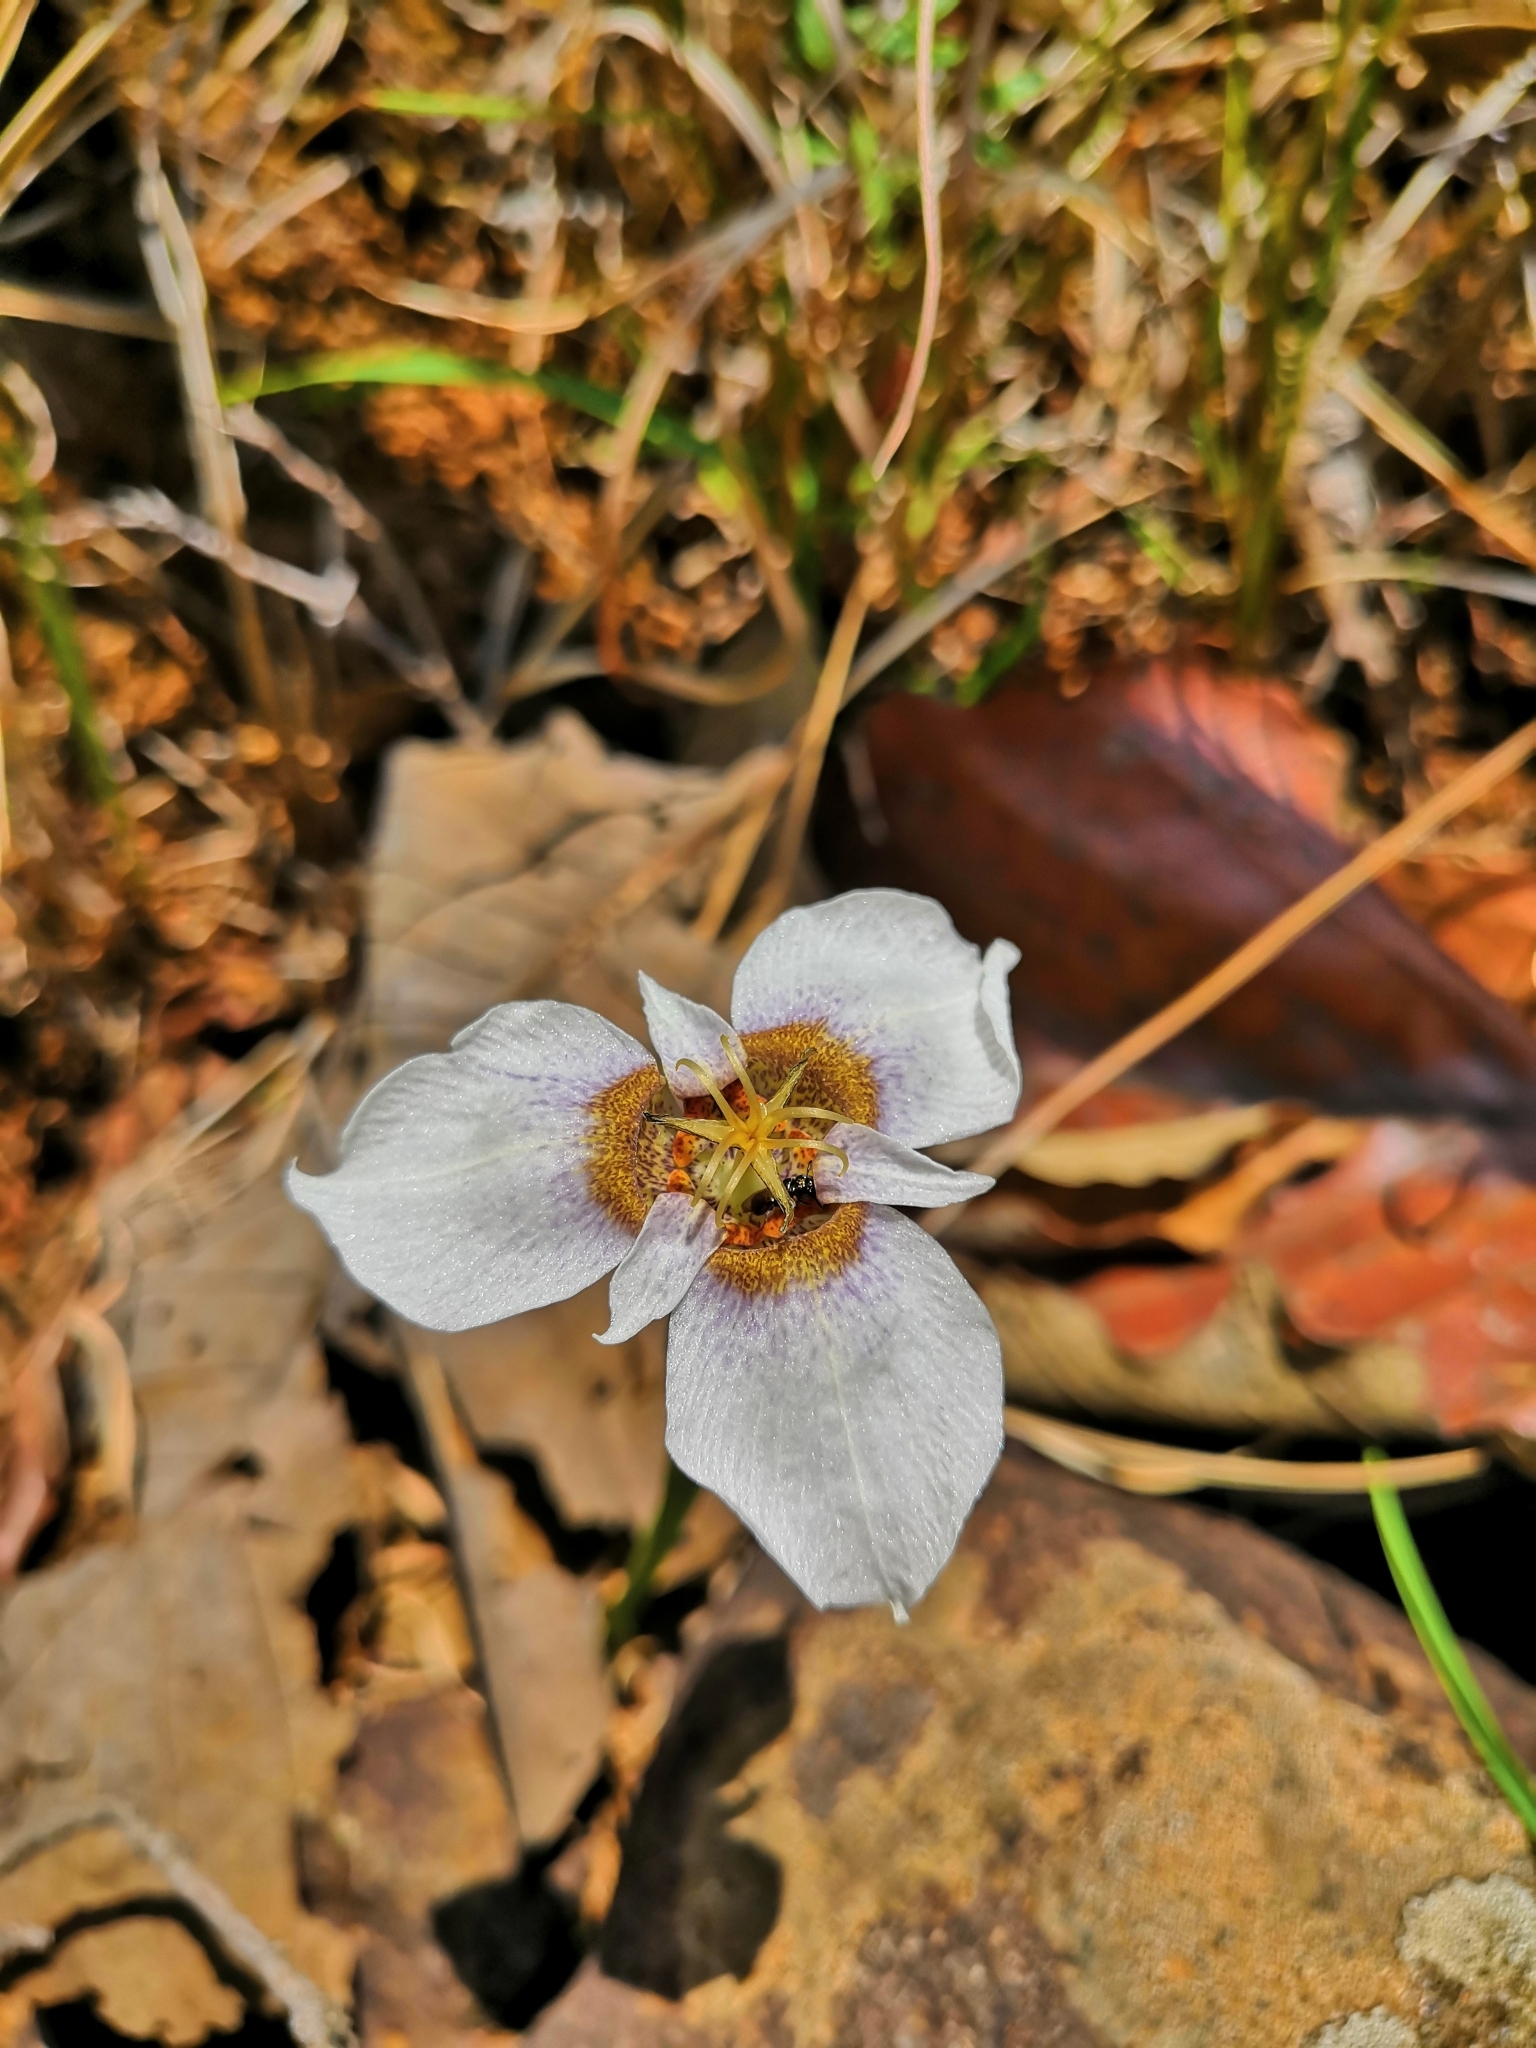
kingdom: Plantae
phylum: Tracheophyta
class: Liliopsida
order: Asparagales
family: Iridaceae
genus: Tigridia
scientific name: Tigridia mexicana
